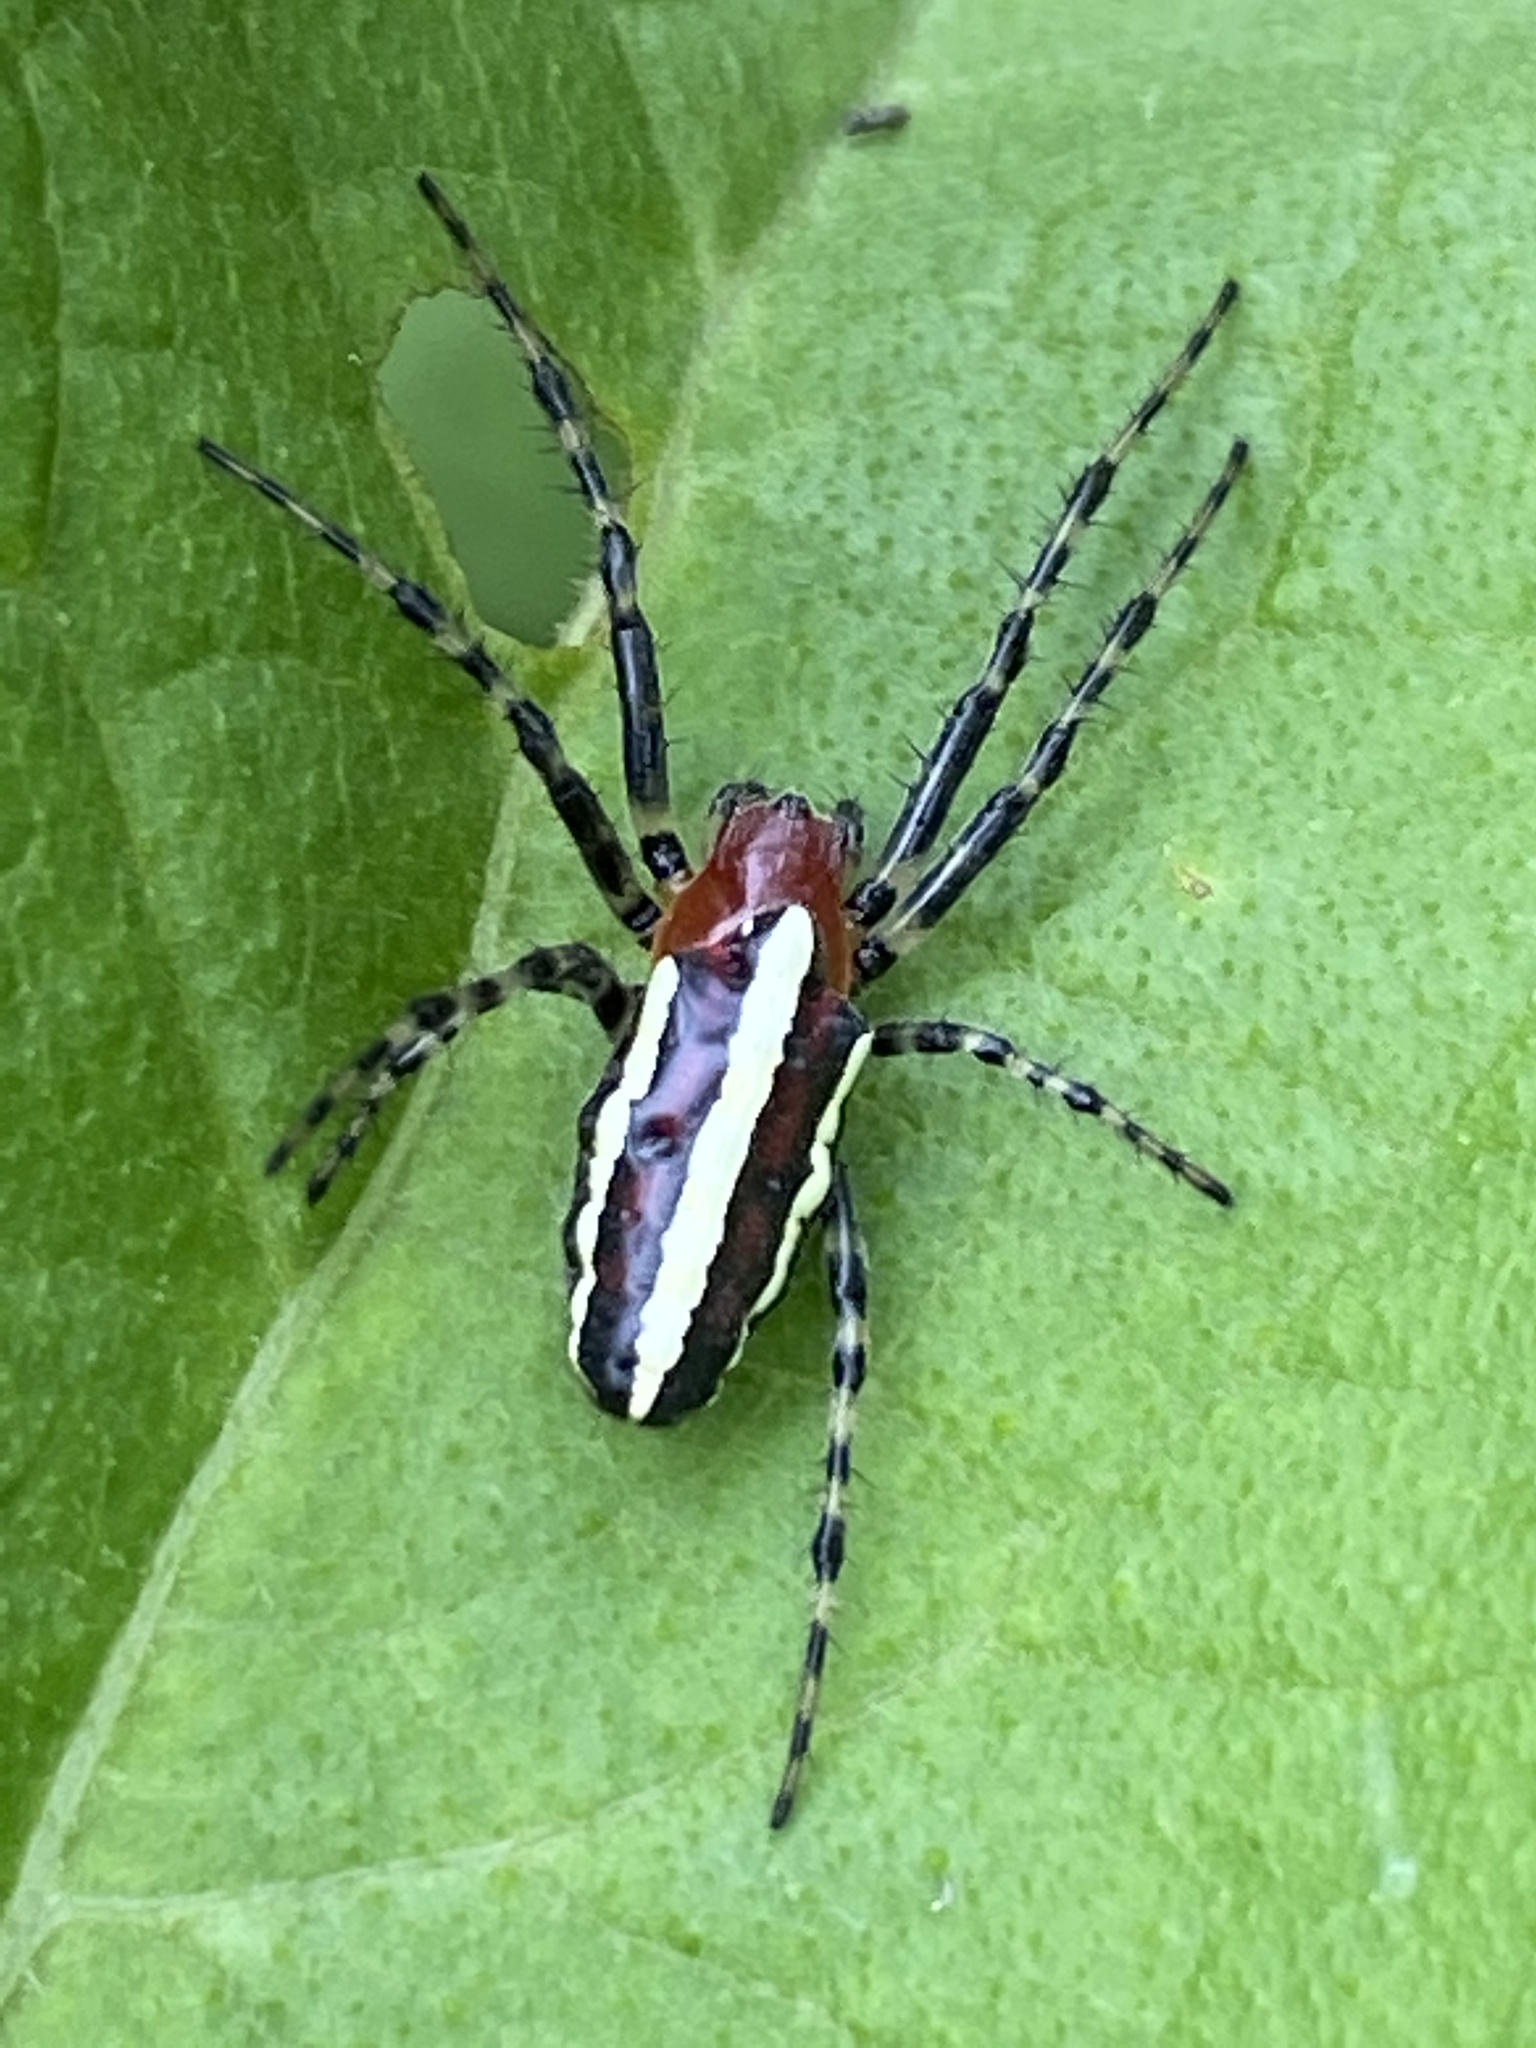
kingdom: Animalia
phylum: Arthropoda
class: Arachnida
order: Araneae
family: Araneidae
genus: Alpaida
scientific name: Alpaida grayi
